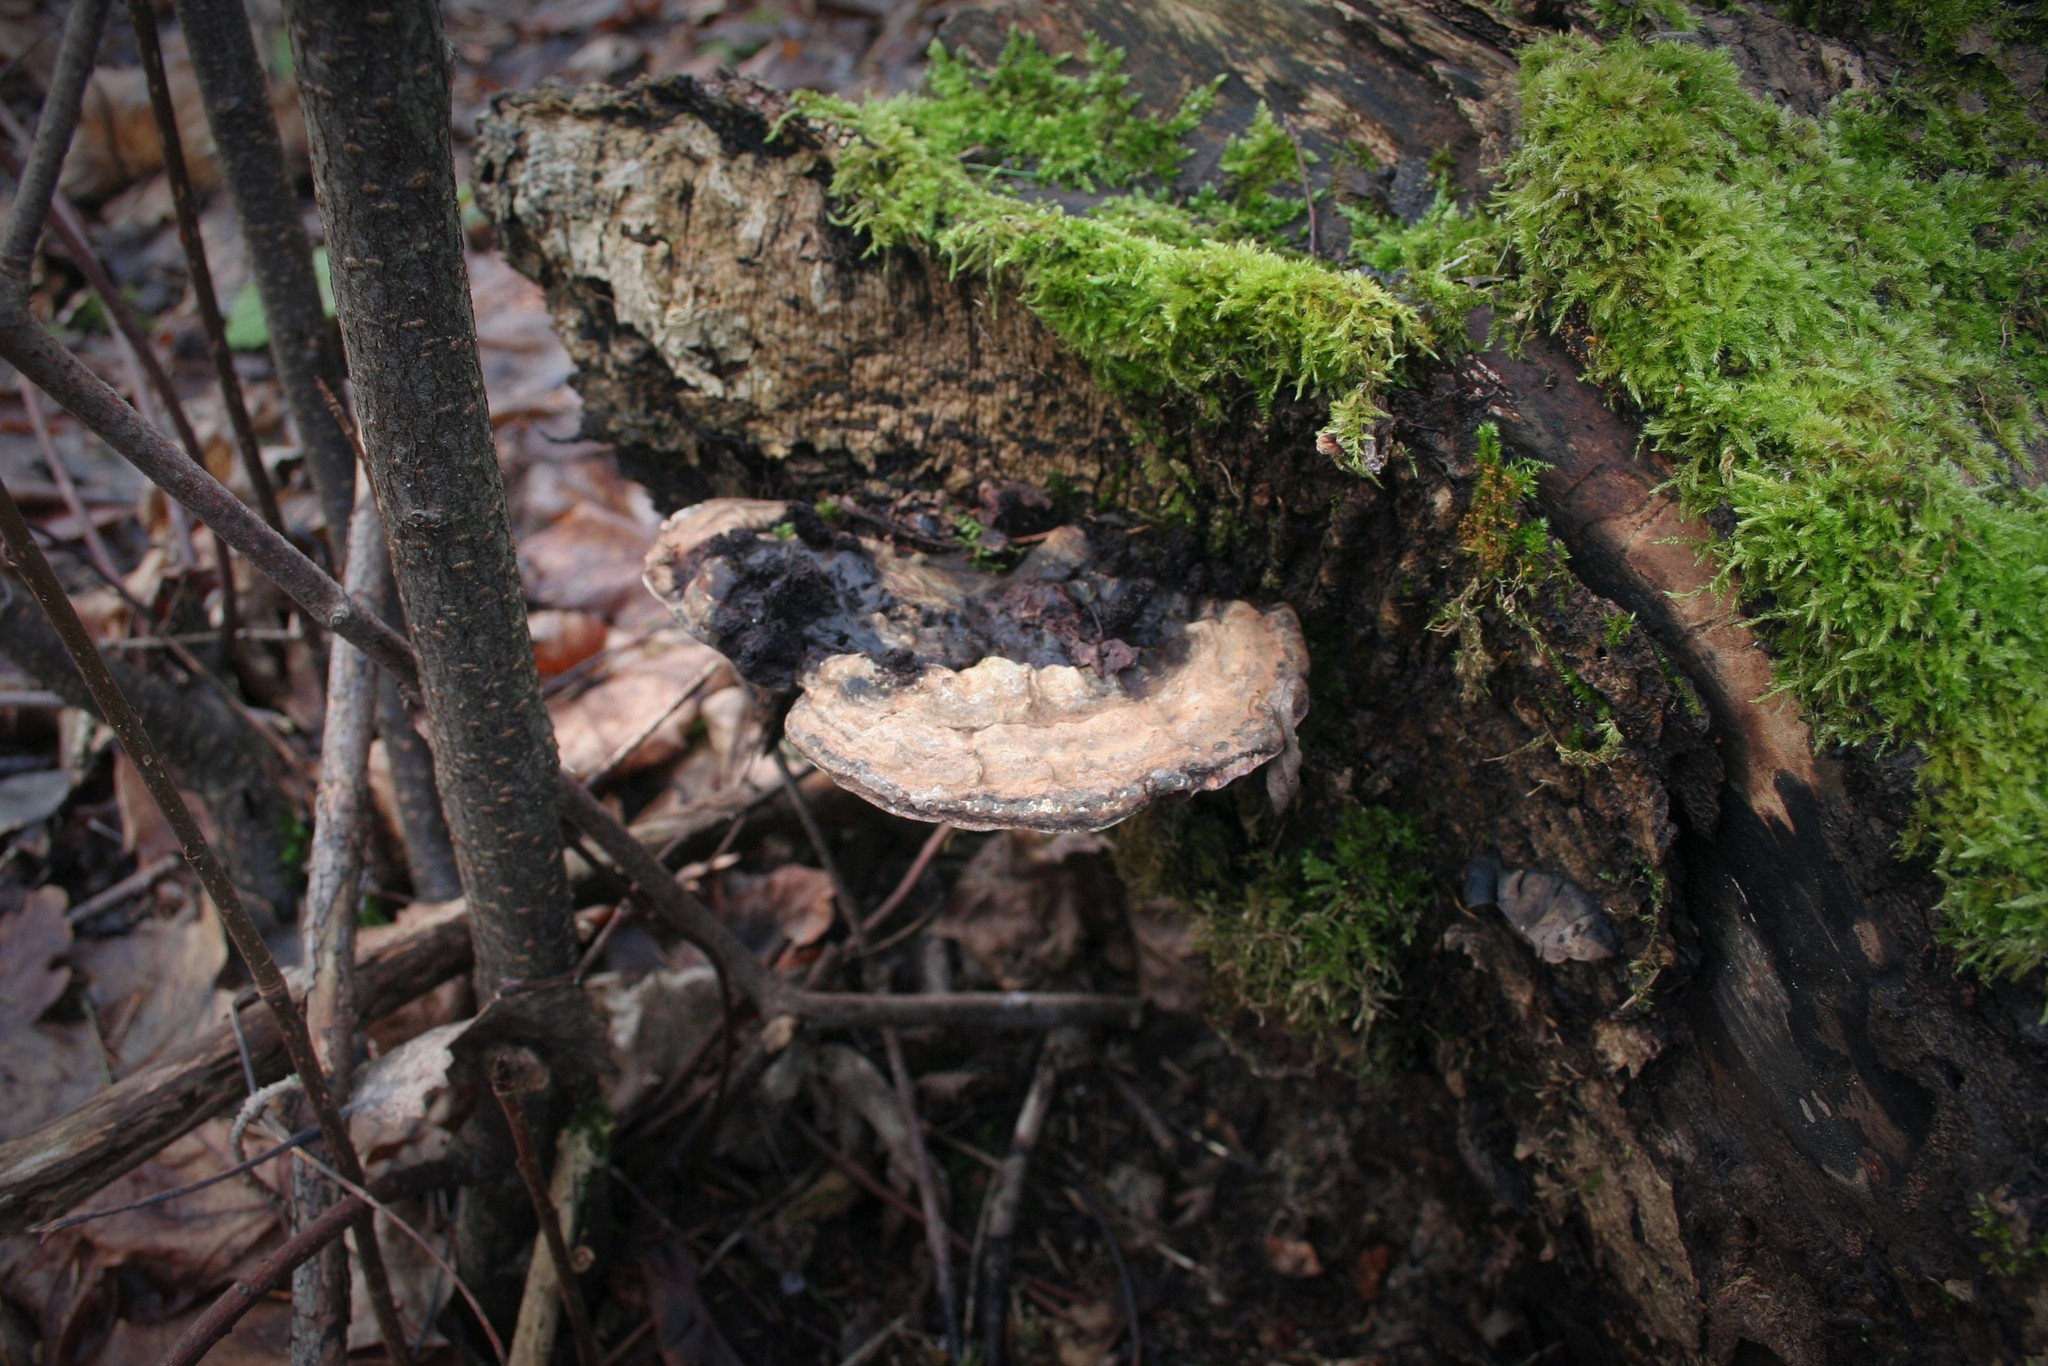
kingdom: Fungi
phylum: Basidiomycota
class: Agaricomycetes
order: Polyporales
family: Polyporaceae
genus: Ganoderma
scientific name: Ganoderma applanatum
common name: Artist's bracket
